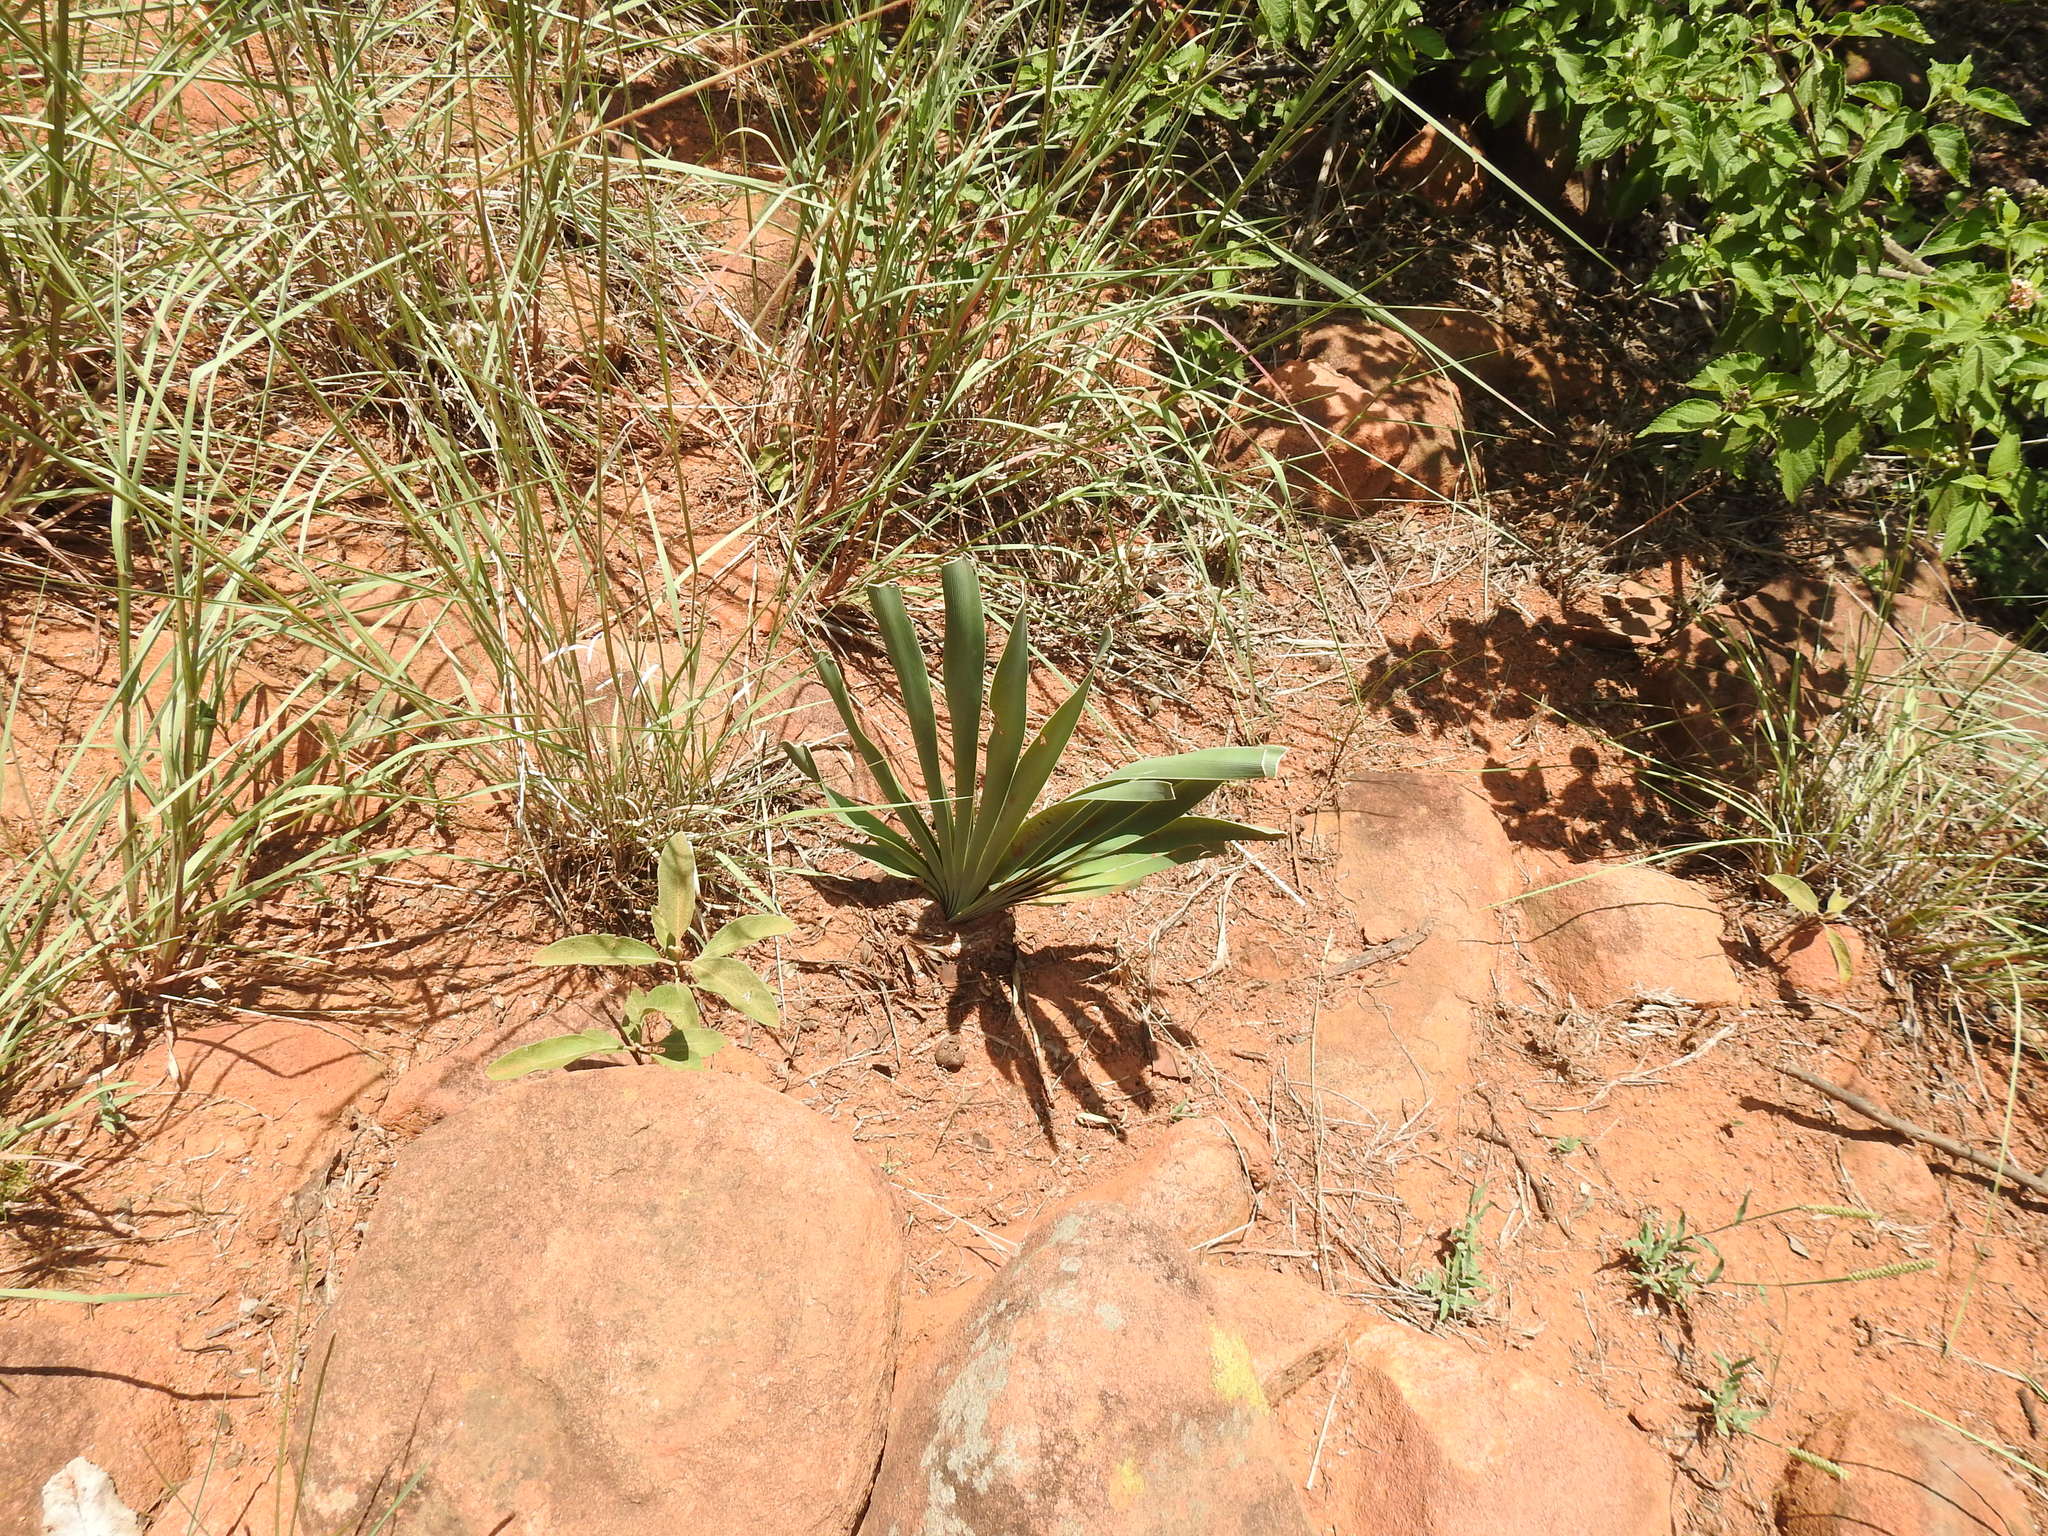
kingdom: Plantae
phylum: Tracheophyta
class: Liliopsida
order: Asparagales
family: Amaryllidaceae
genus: Boophone
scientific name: Boophone disticha
